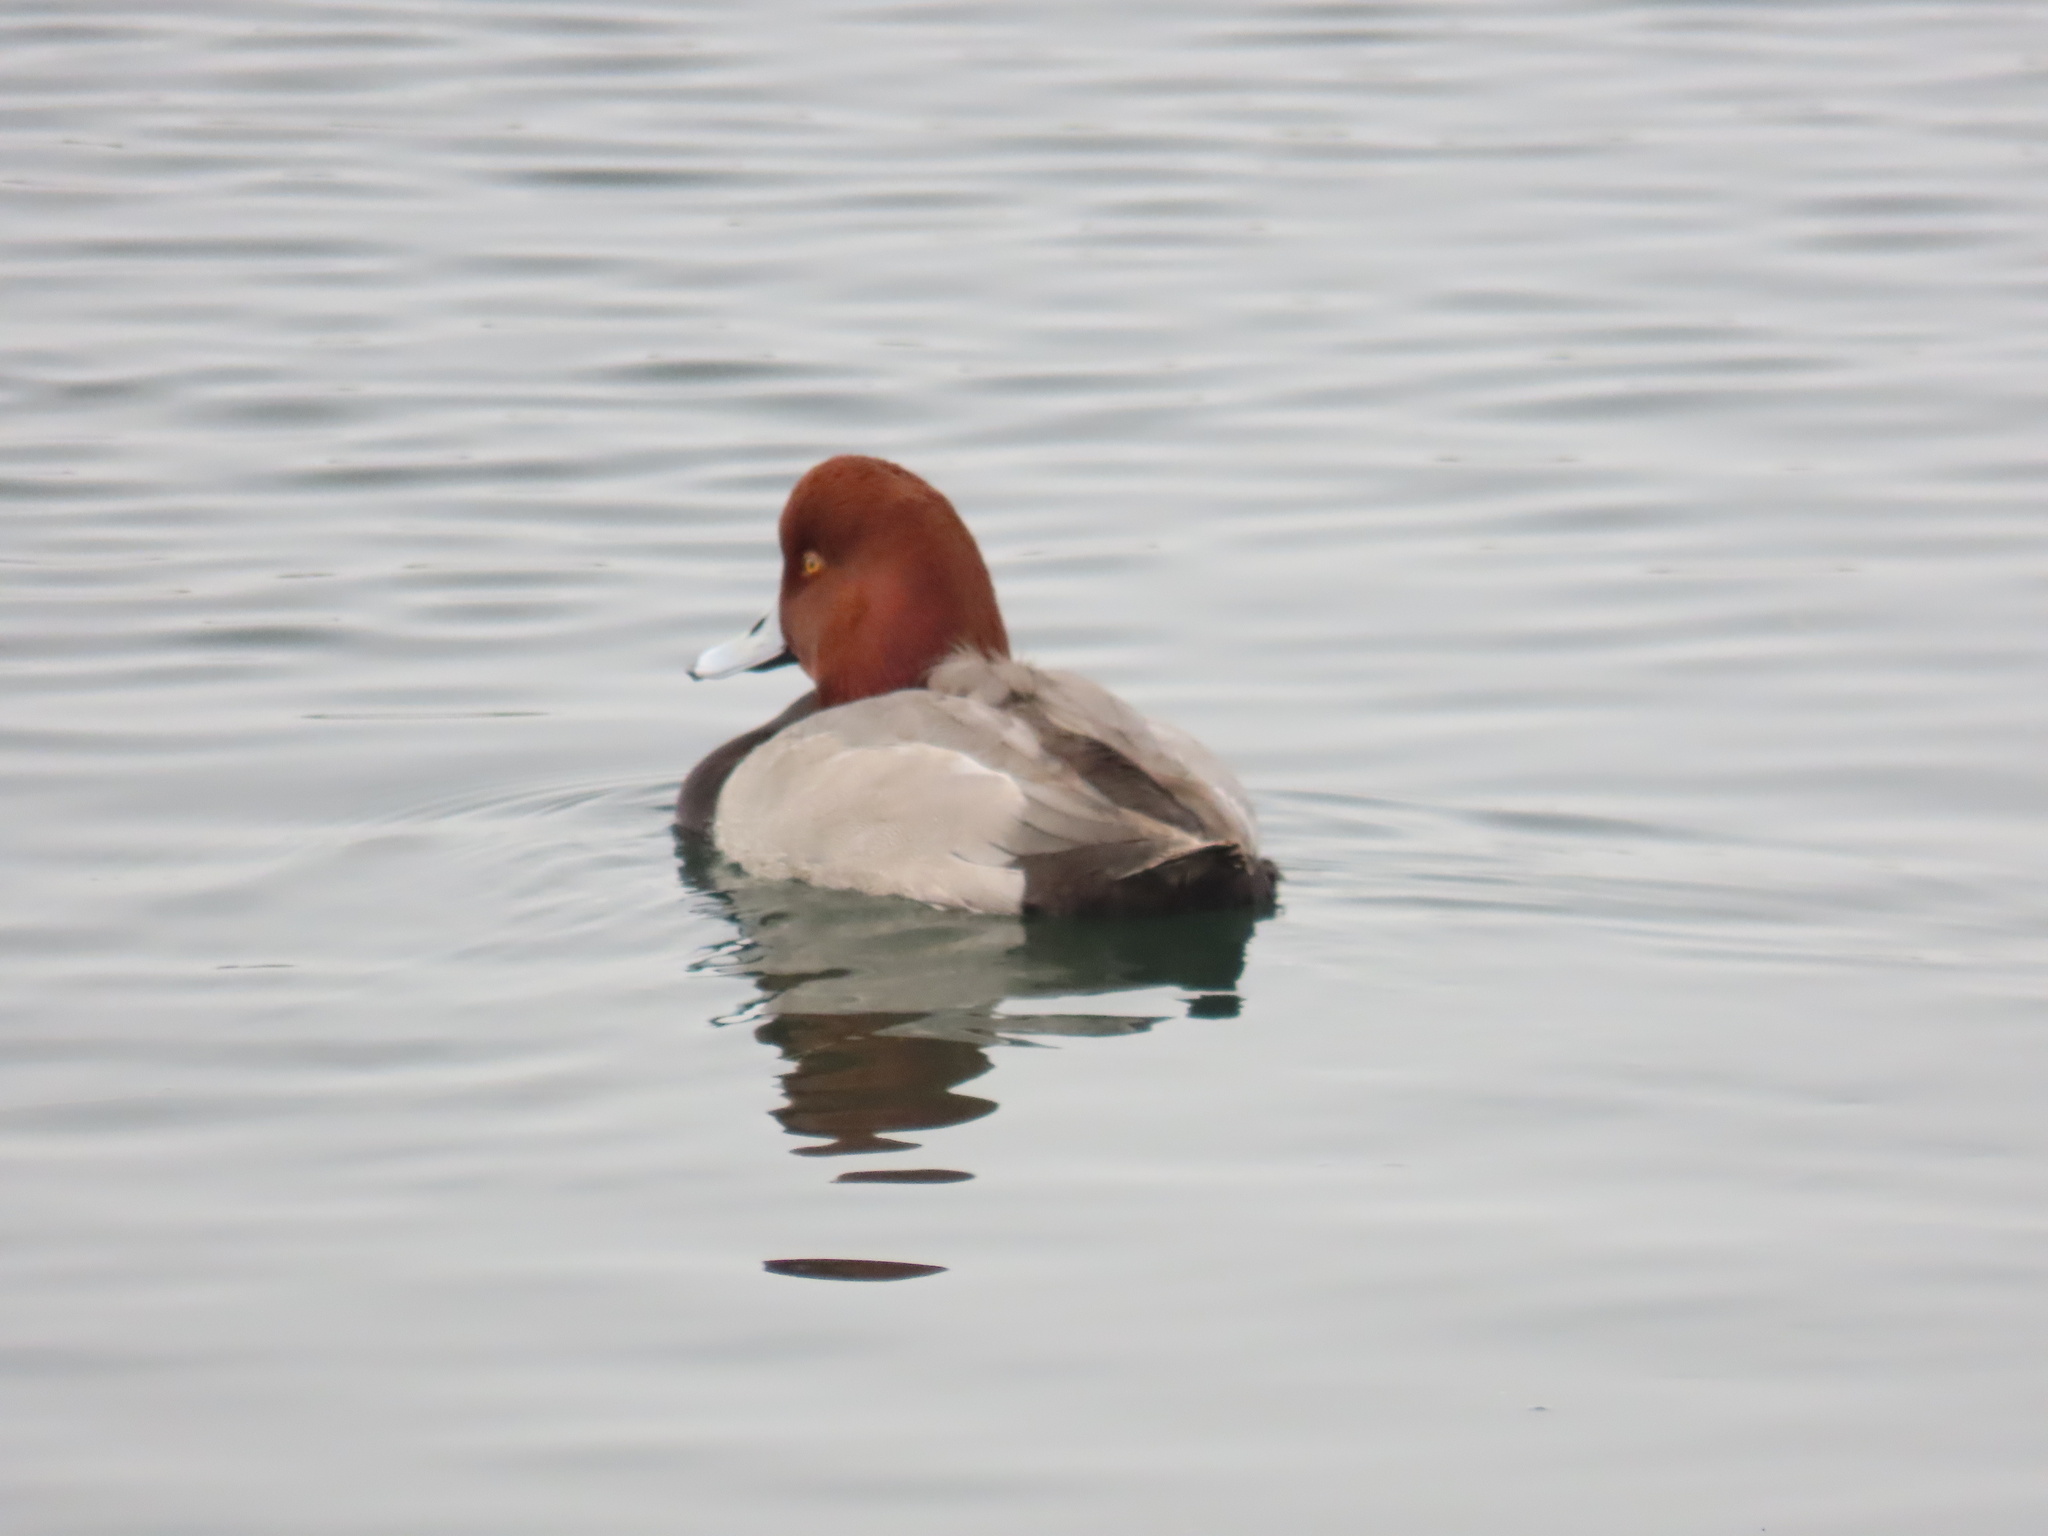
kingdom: Animalia
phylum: Chordata
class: Aves
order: Anseriformes
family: Anatidae
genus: Aythya
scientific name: Aythya americana
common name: Redhead
